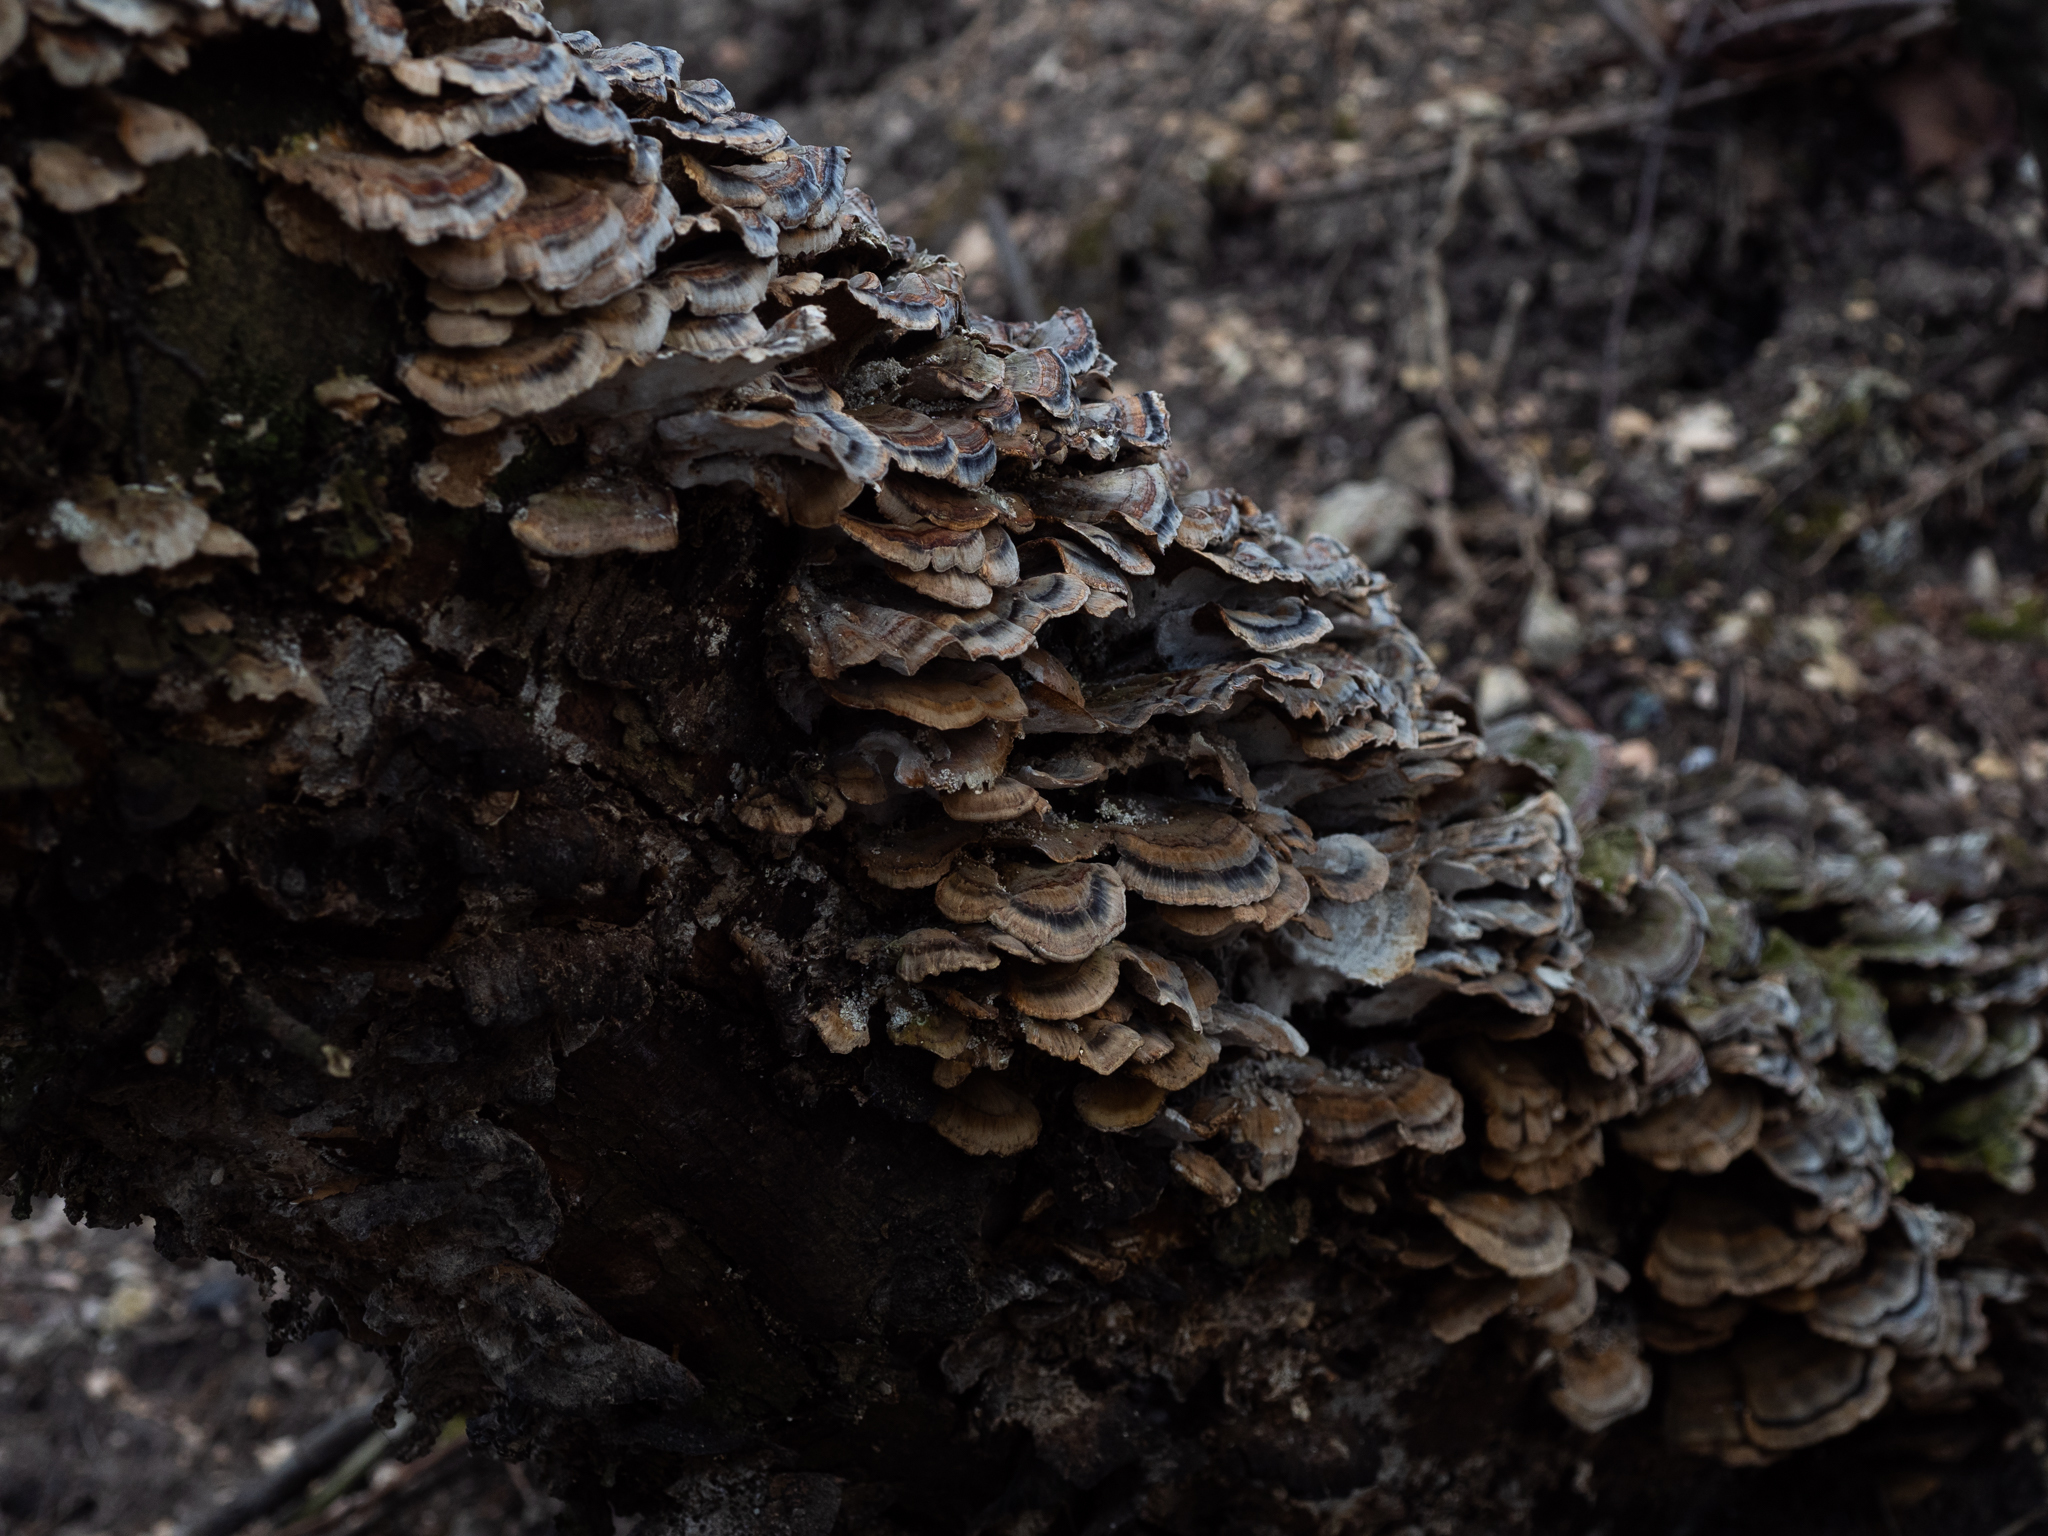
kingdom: Fungi
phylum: Basidiomycota
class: Agaricomycetes
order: Polyporales
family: Polyporaceae
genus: Trametes
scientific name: Trametes versicolor
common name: Turkeytail
